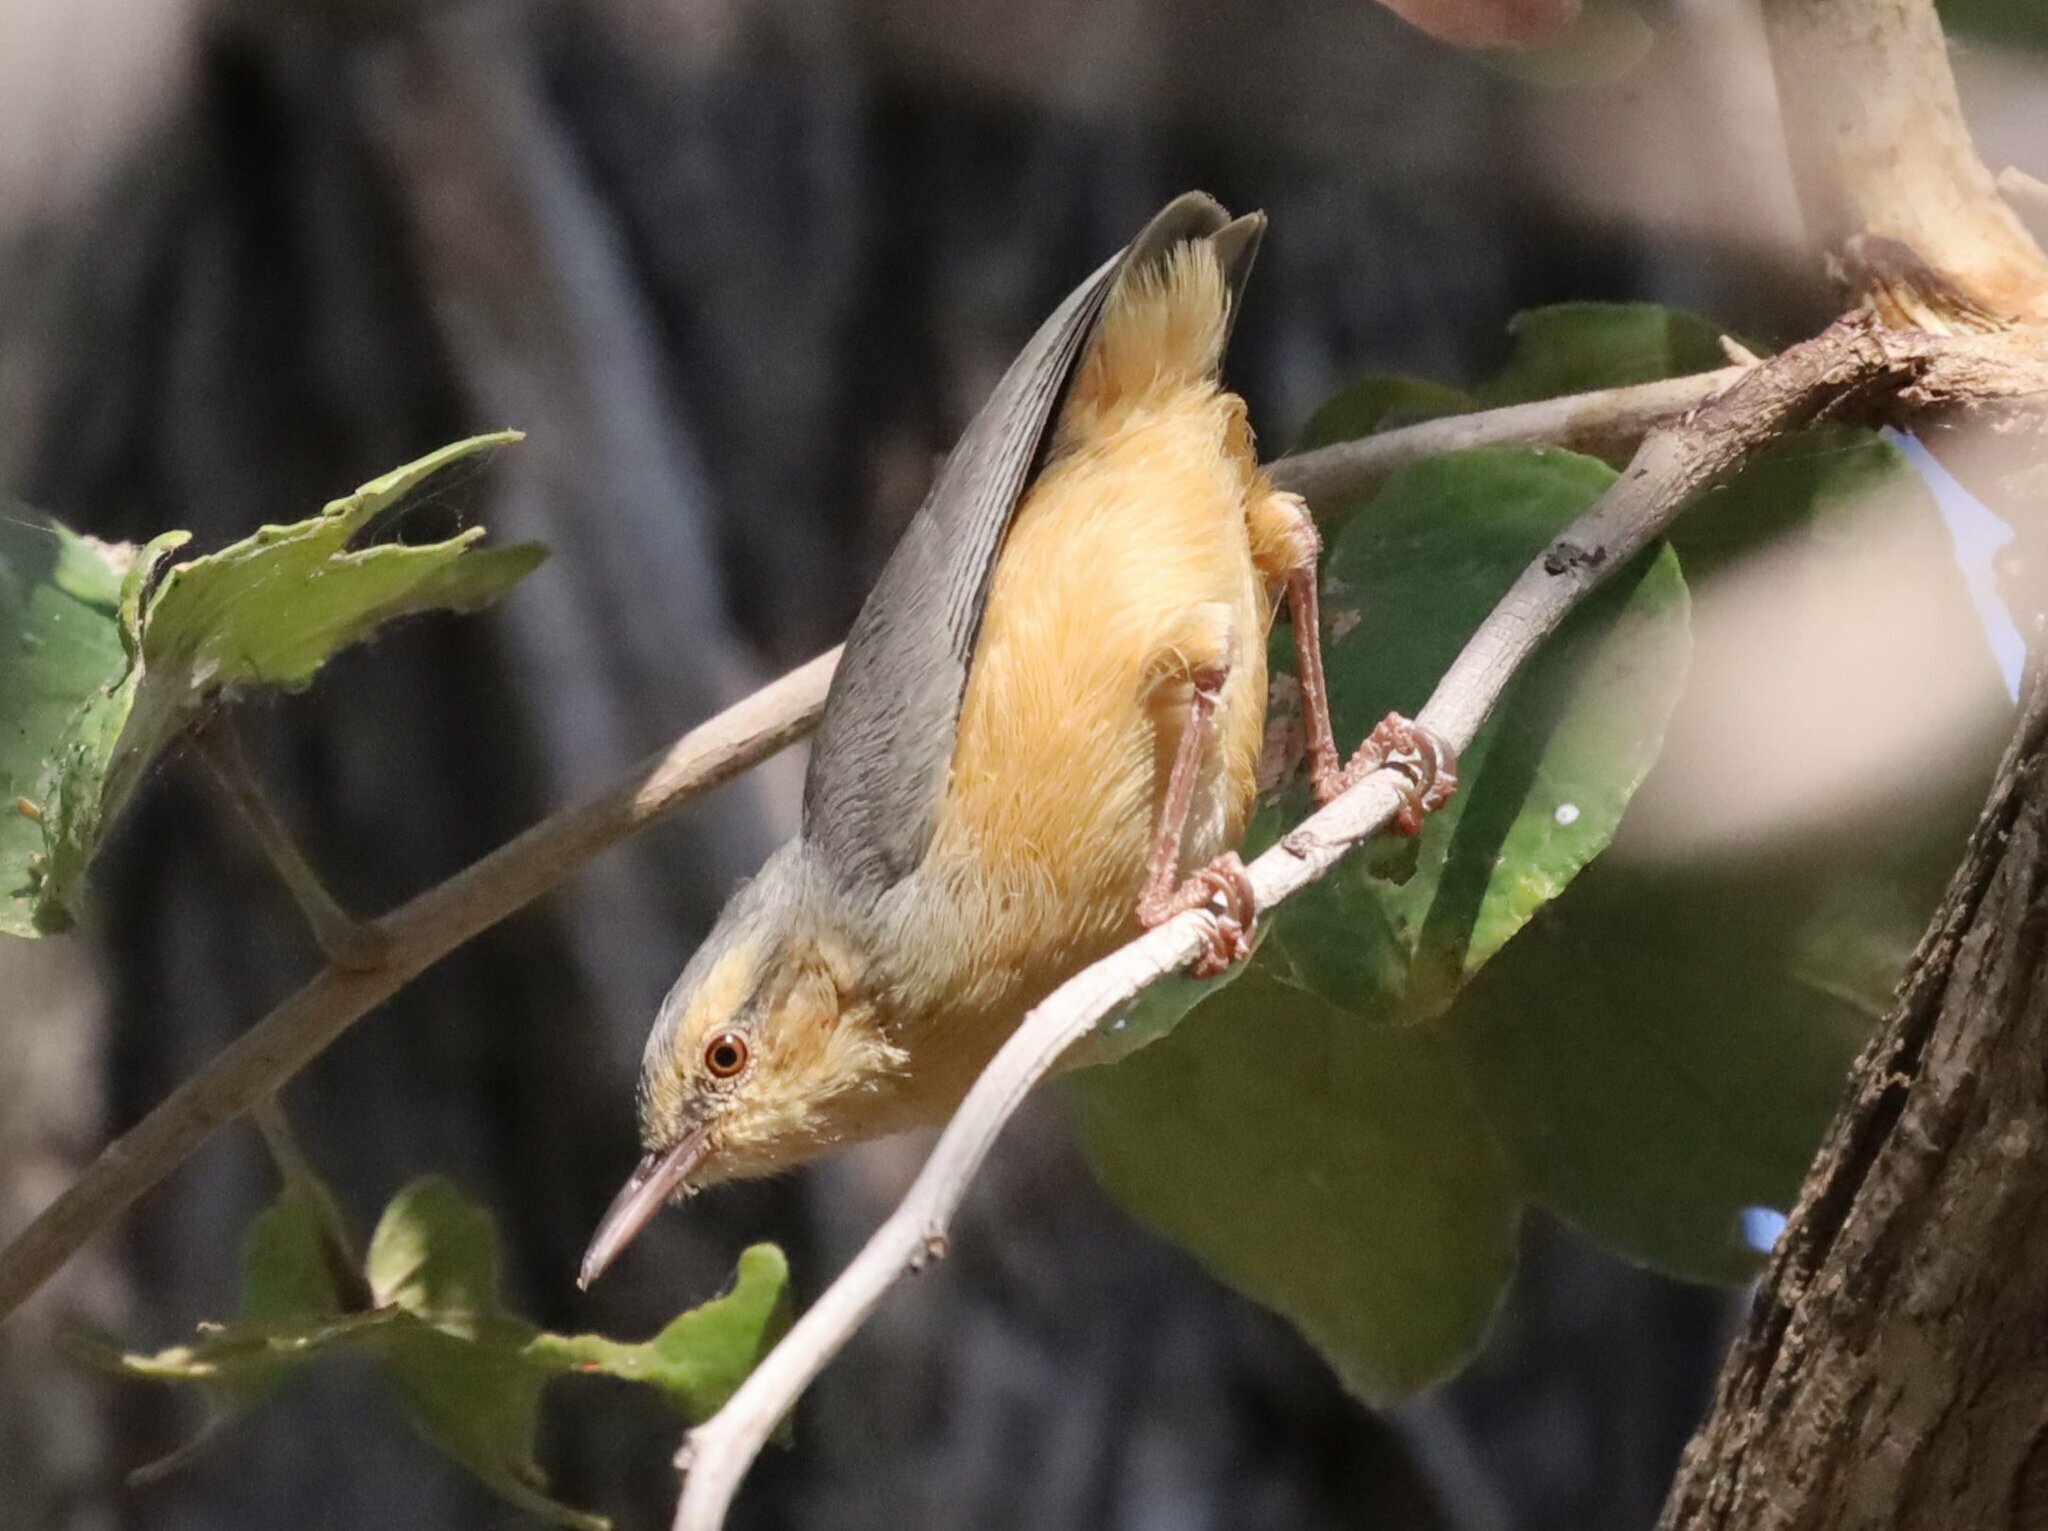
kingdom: Animalia
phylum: Chordata
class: Aves
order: Passeriformes
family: Macrosphenidae
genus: Sylvietta
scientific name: Sylvietta rufescens
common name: Long-billed crombec
